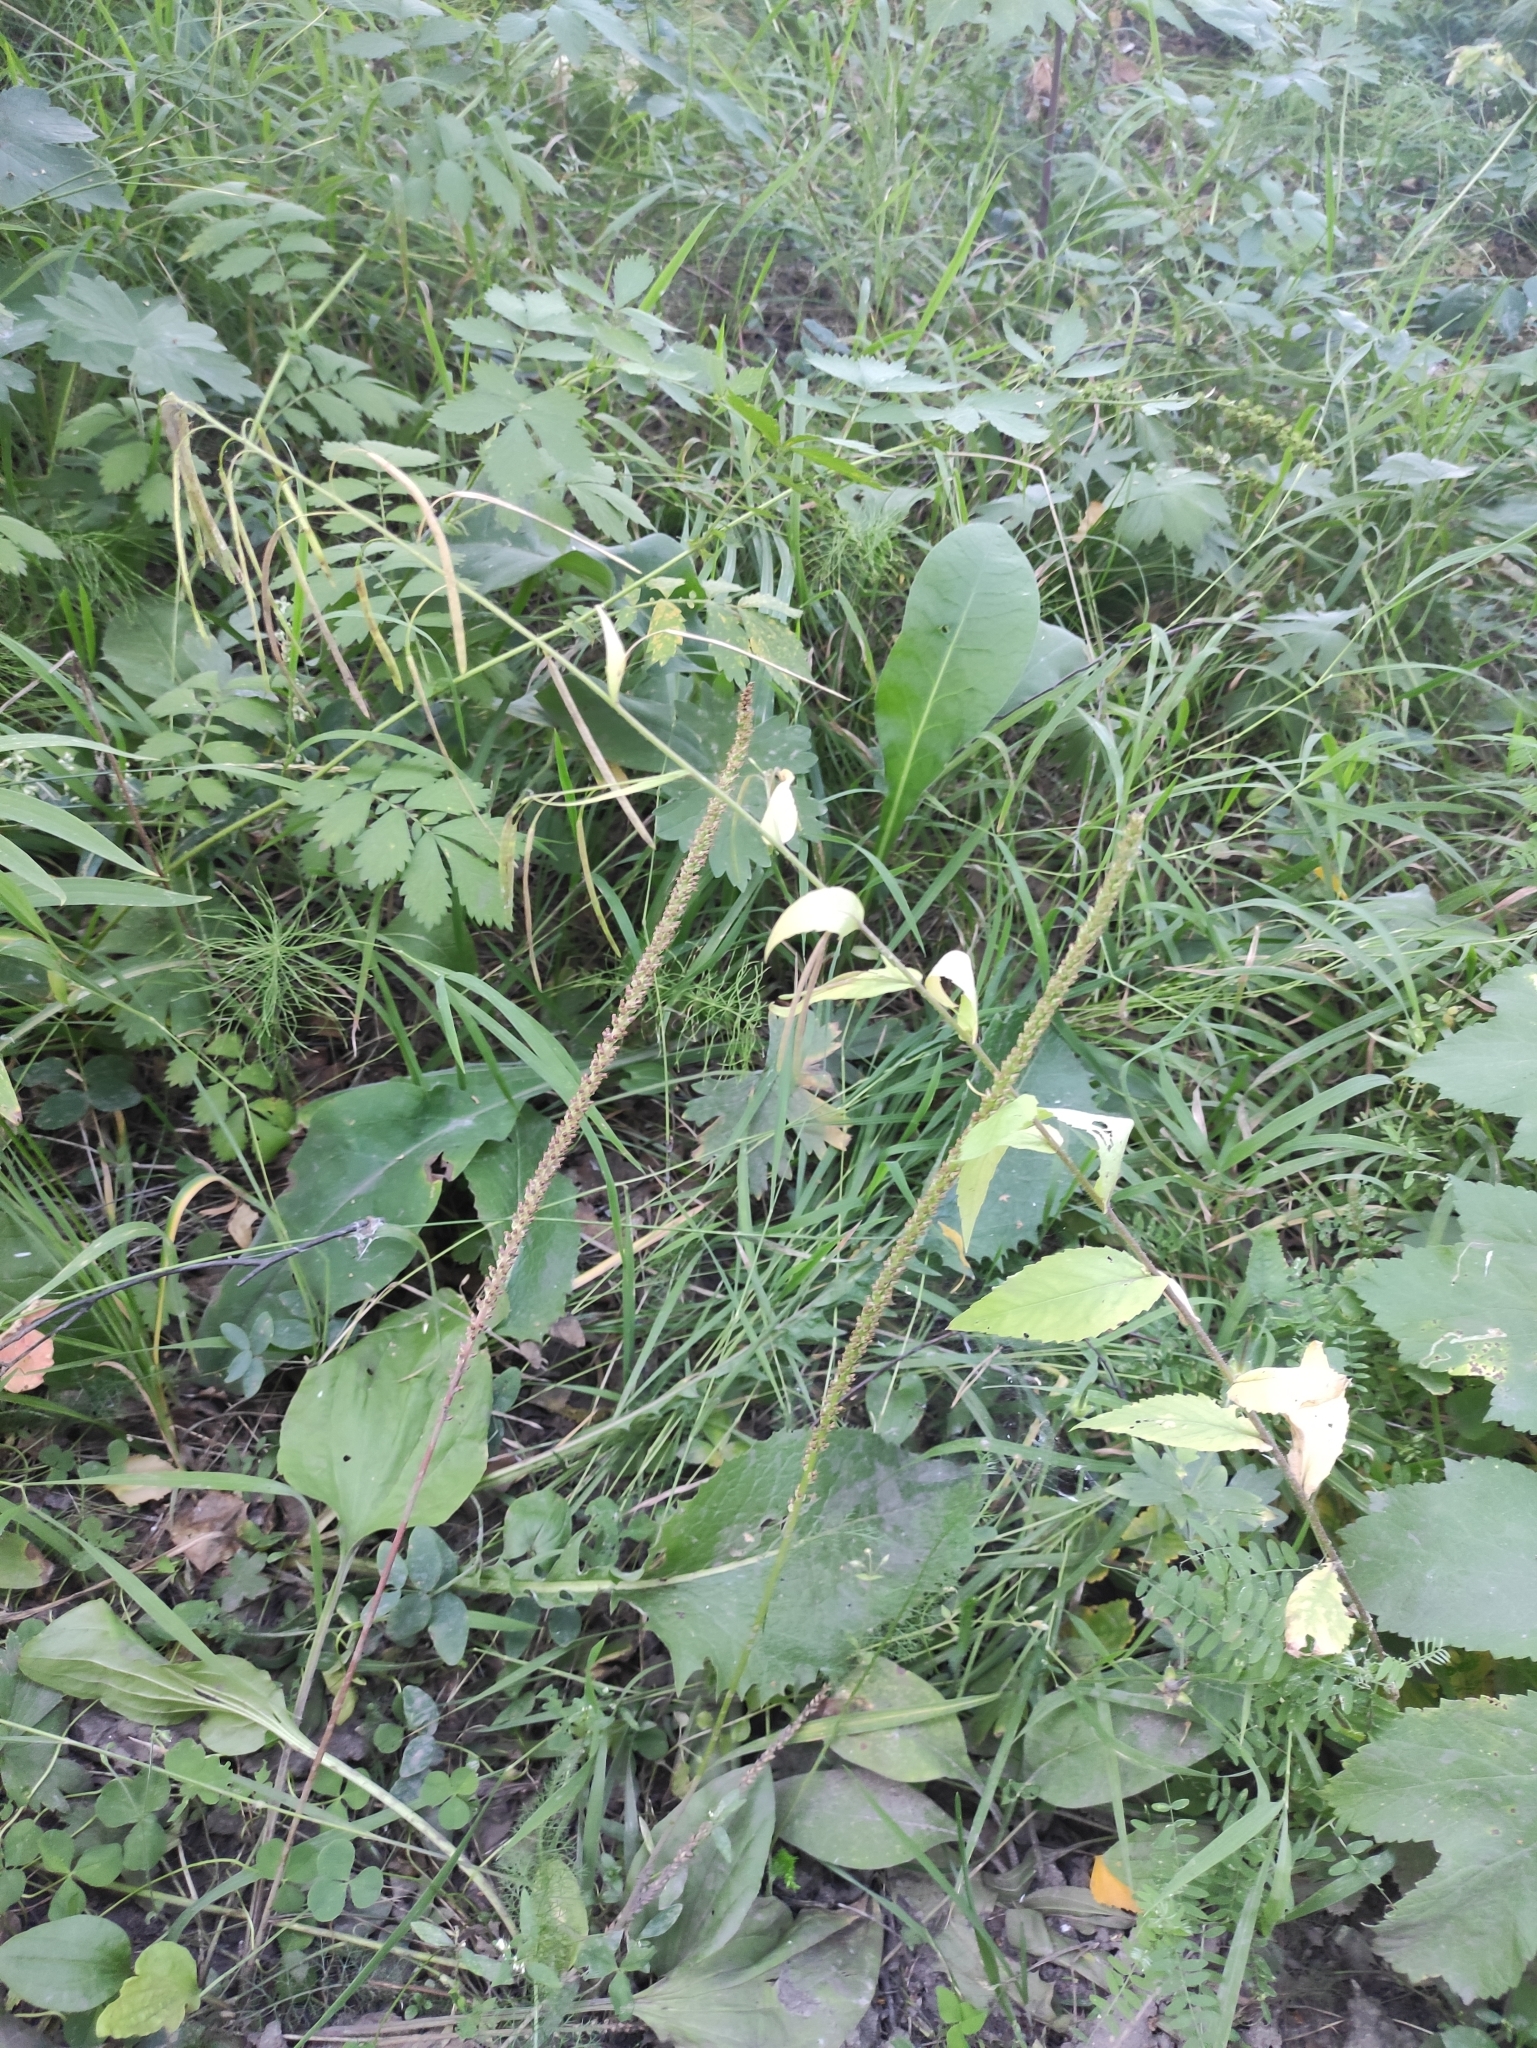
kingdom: Plantae
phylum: Tracheophyta
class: Magnoliopsida
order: Brassicales
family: Brassicaceae
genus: Catolobus
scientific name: Catolobus pendulus
